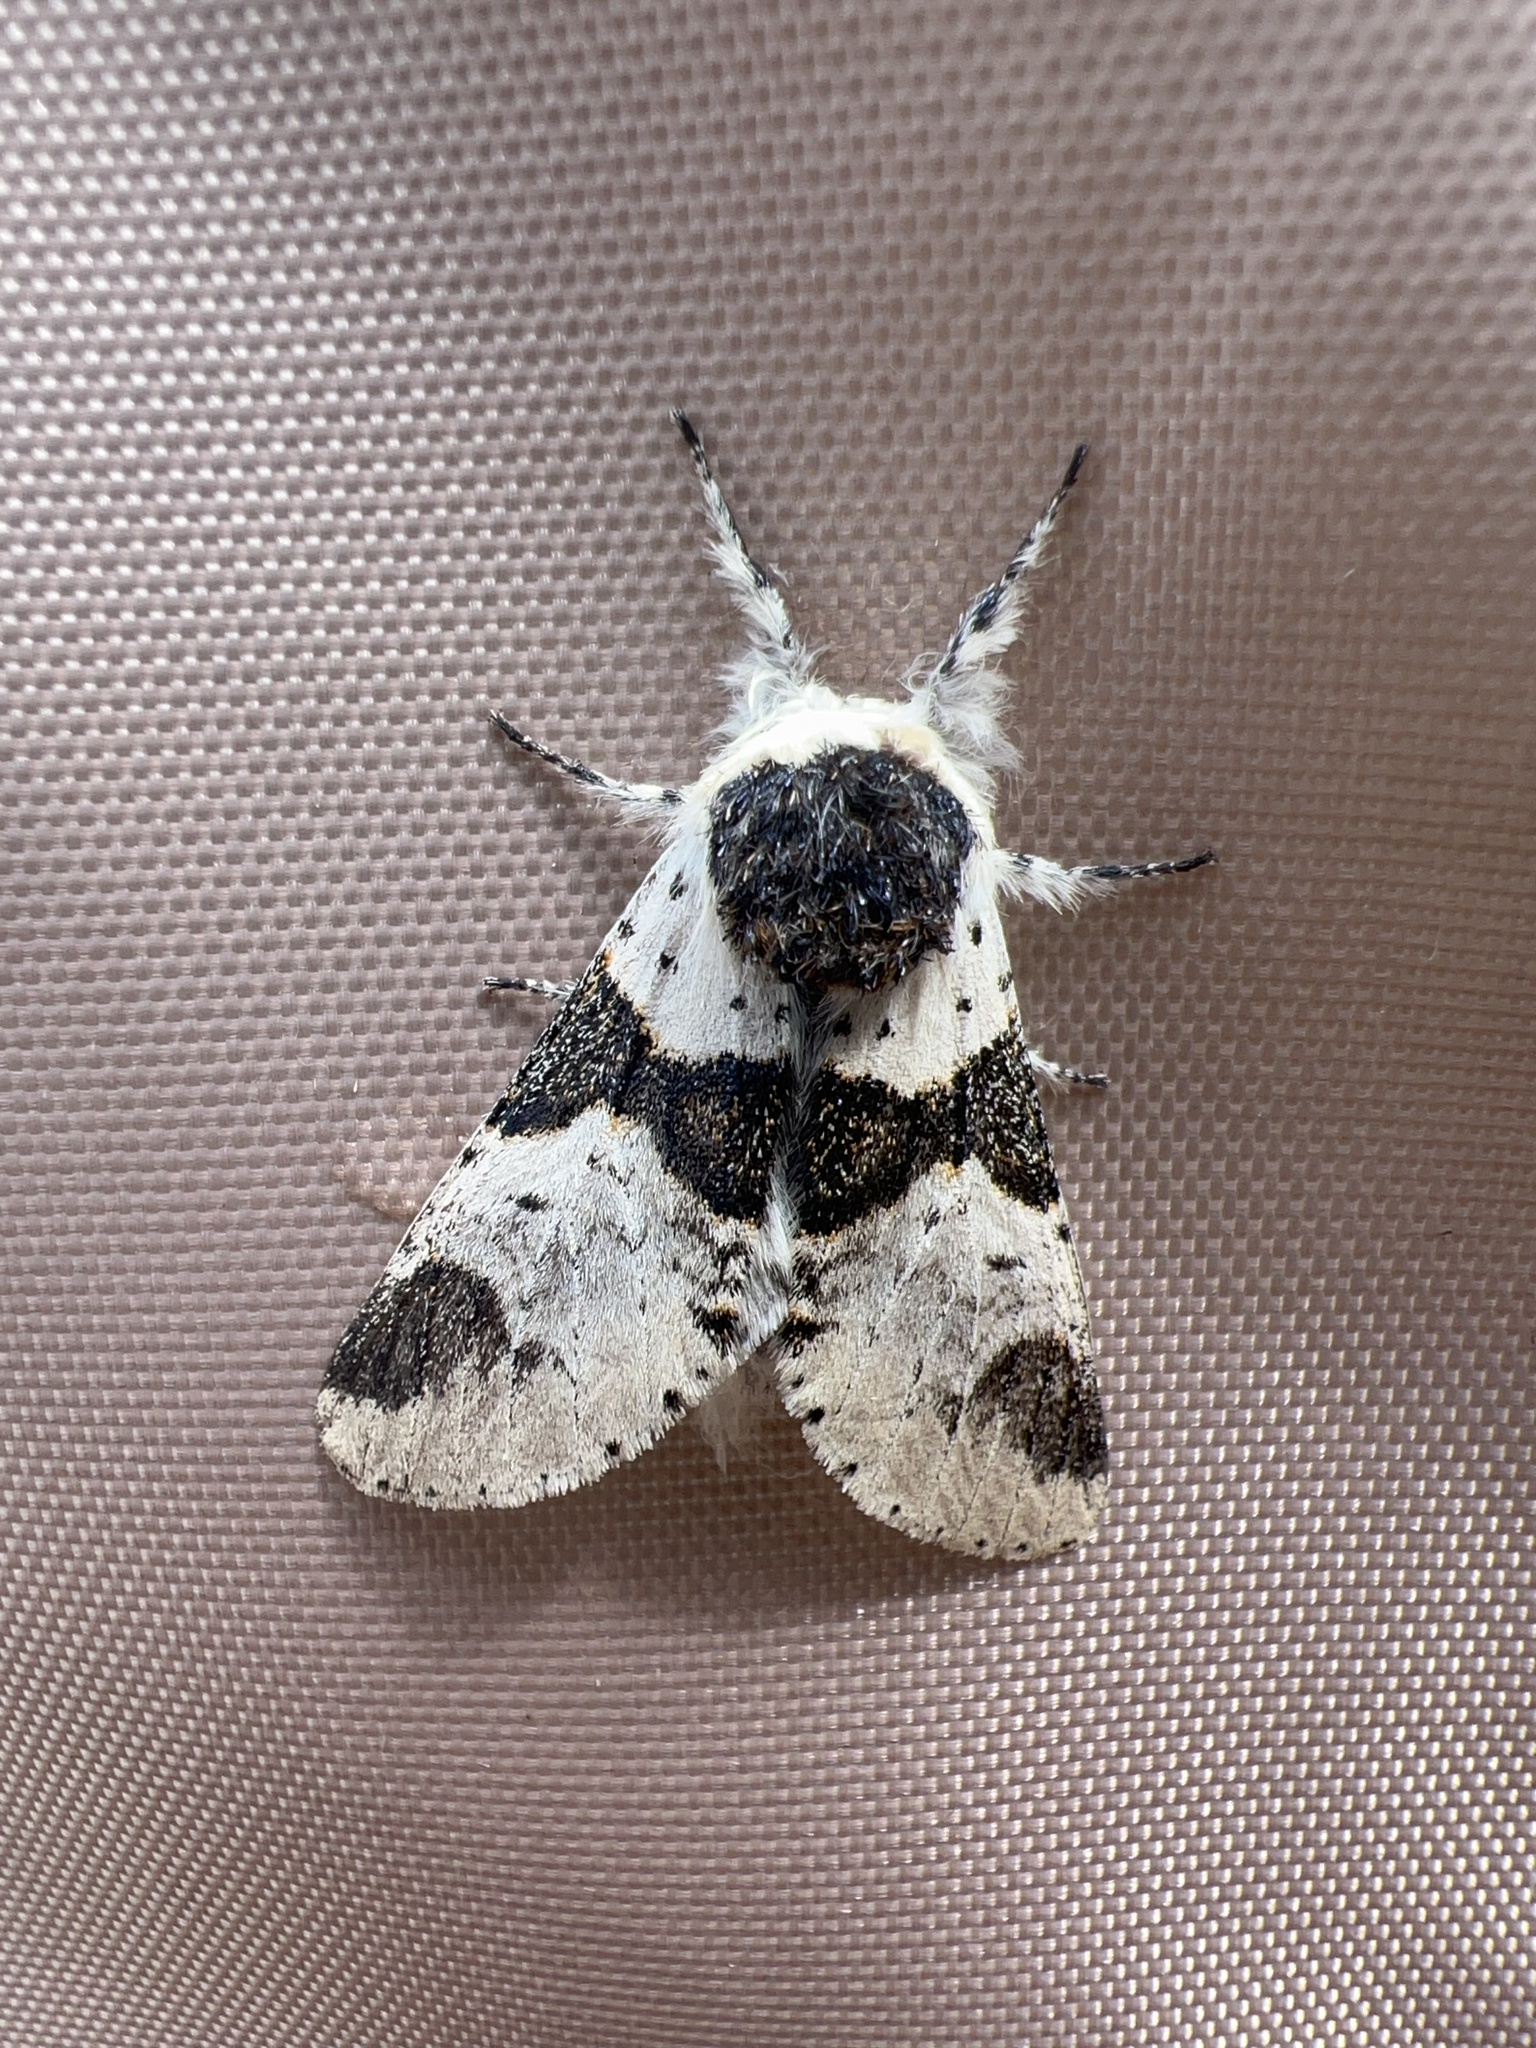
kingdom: Animalia
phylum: Arthropoda
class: Insecta
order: Lepidoptera
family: Notodontidae
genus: Furcula
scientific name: Furcula modesta
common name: Modest furcula moth
